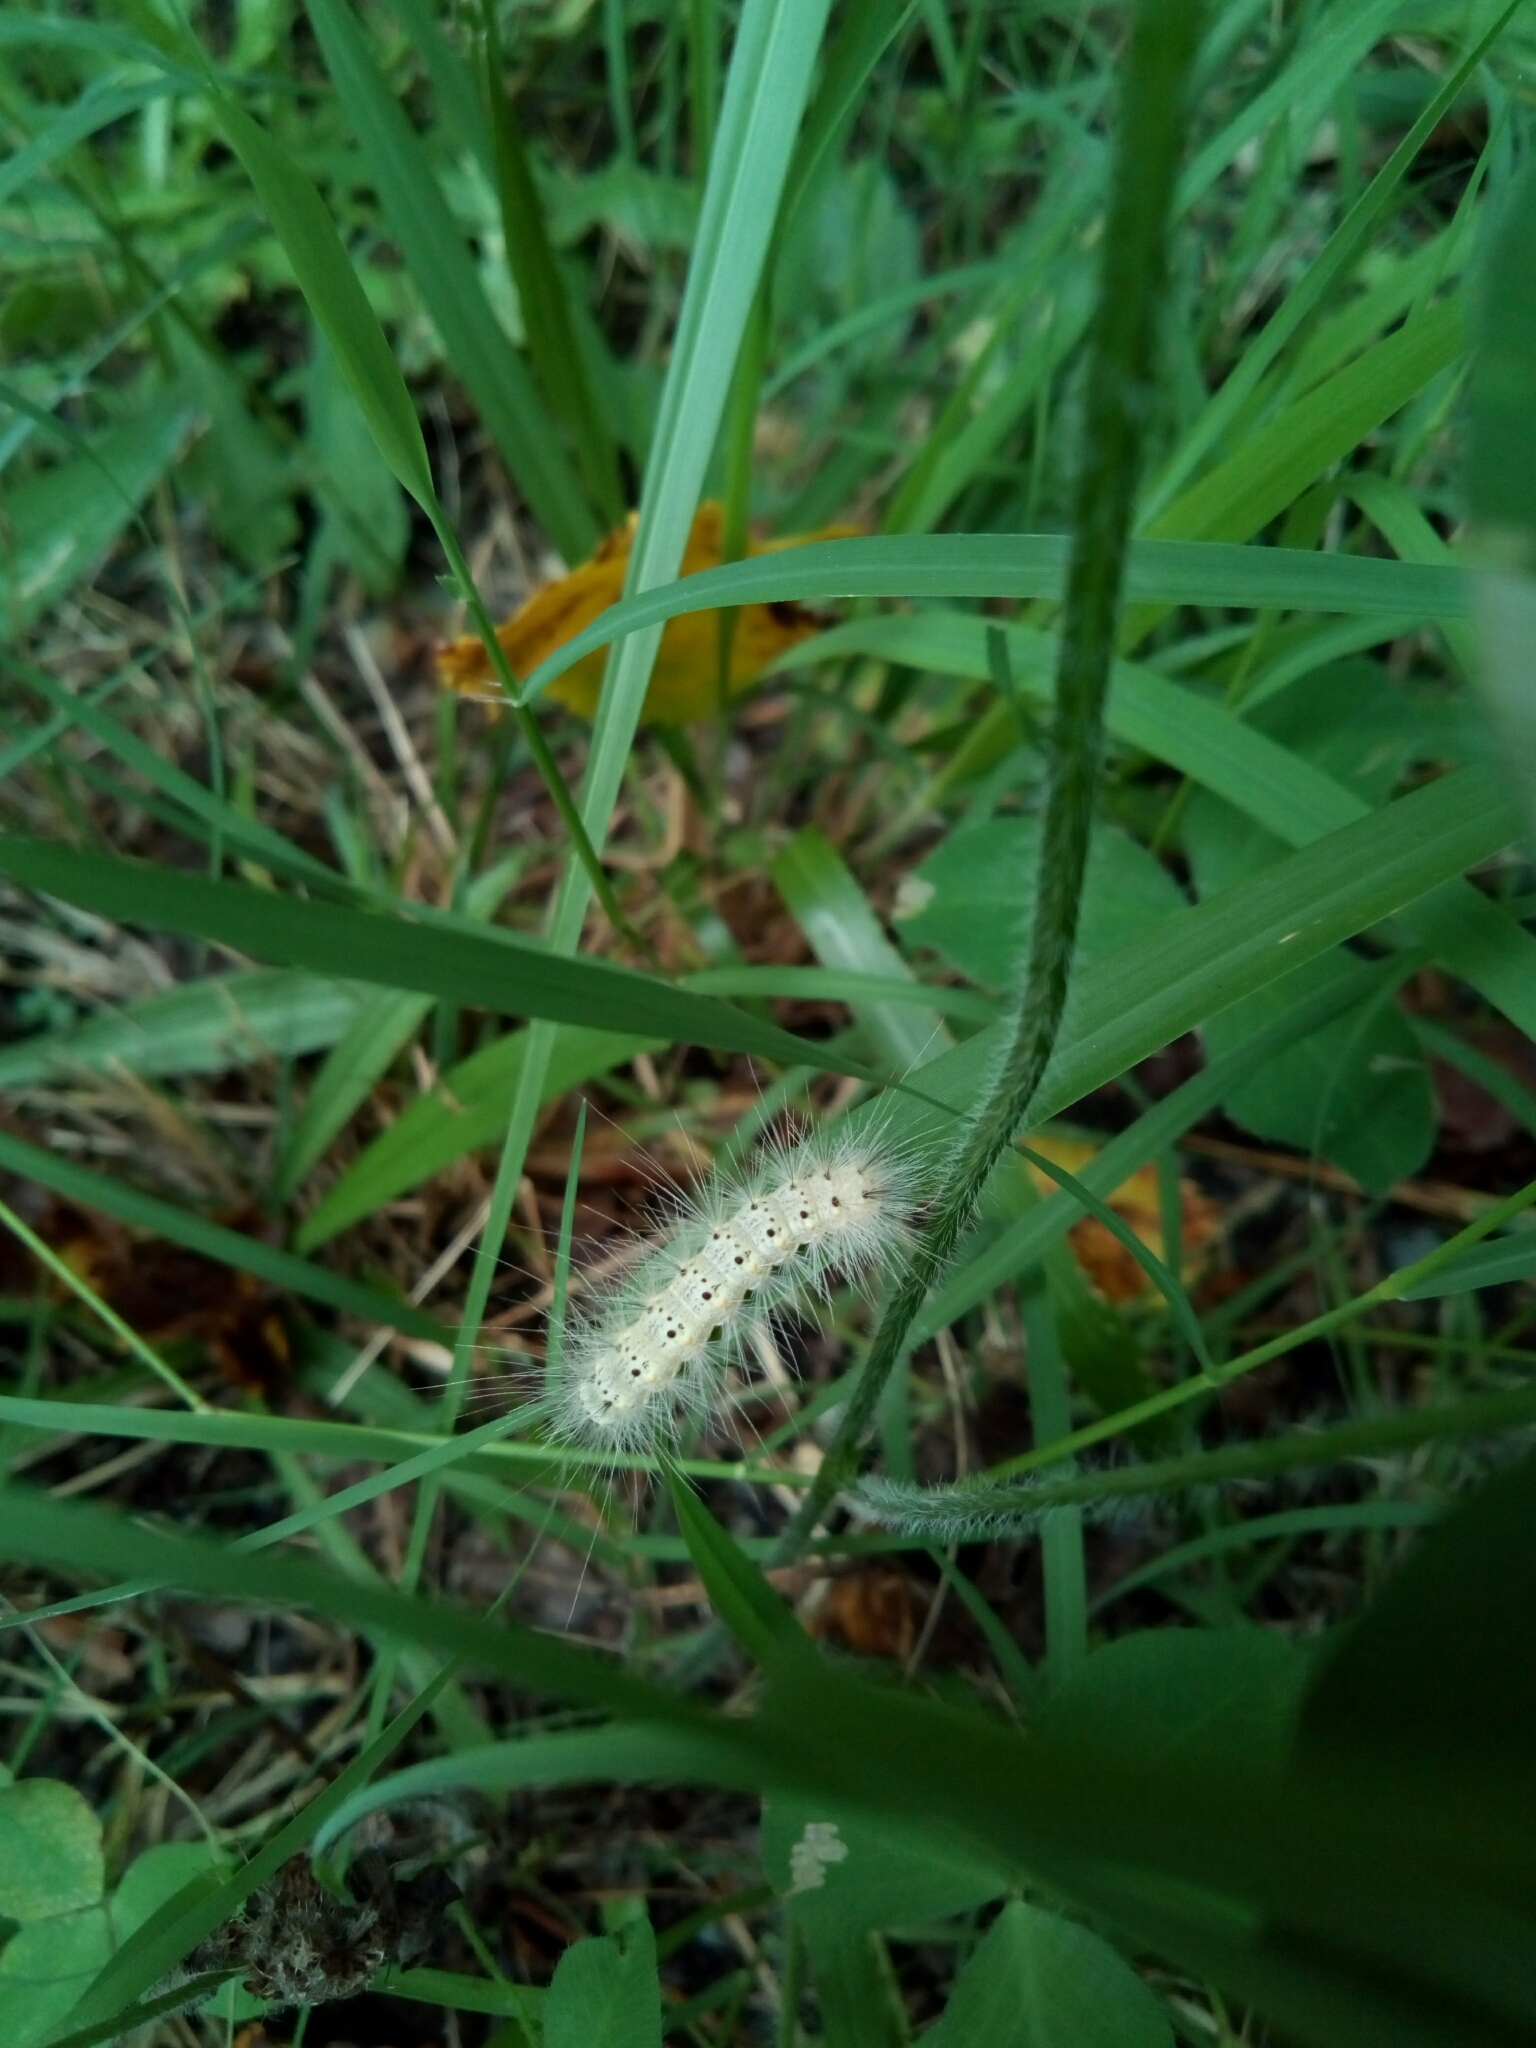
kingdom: Animalia
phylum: Arthropoda
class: Insecta
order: Lepidoptera
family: Erebidae
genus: Hyphantria
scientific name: Hyphantria cunea
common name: American white moth
